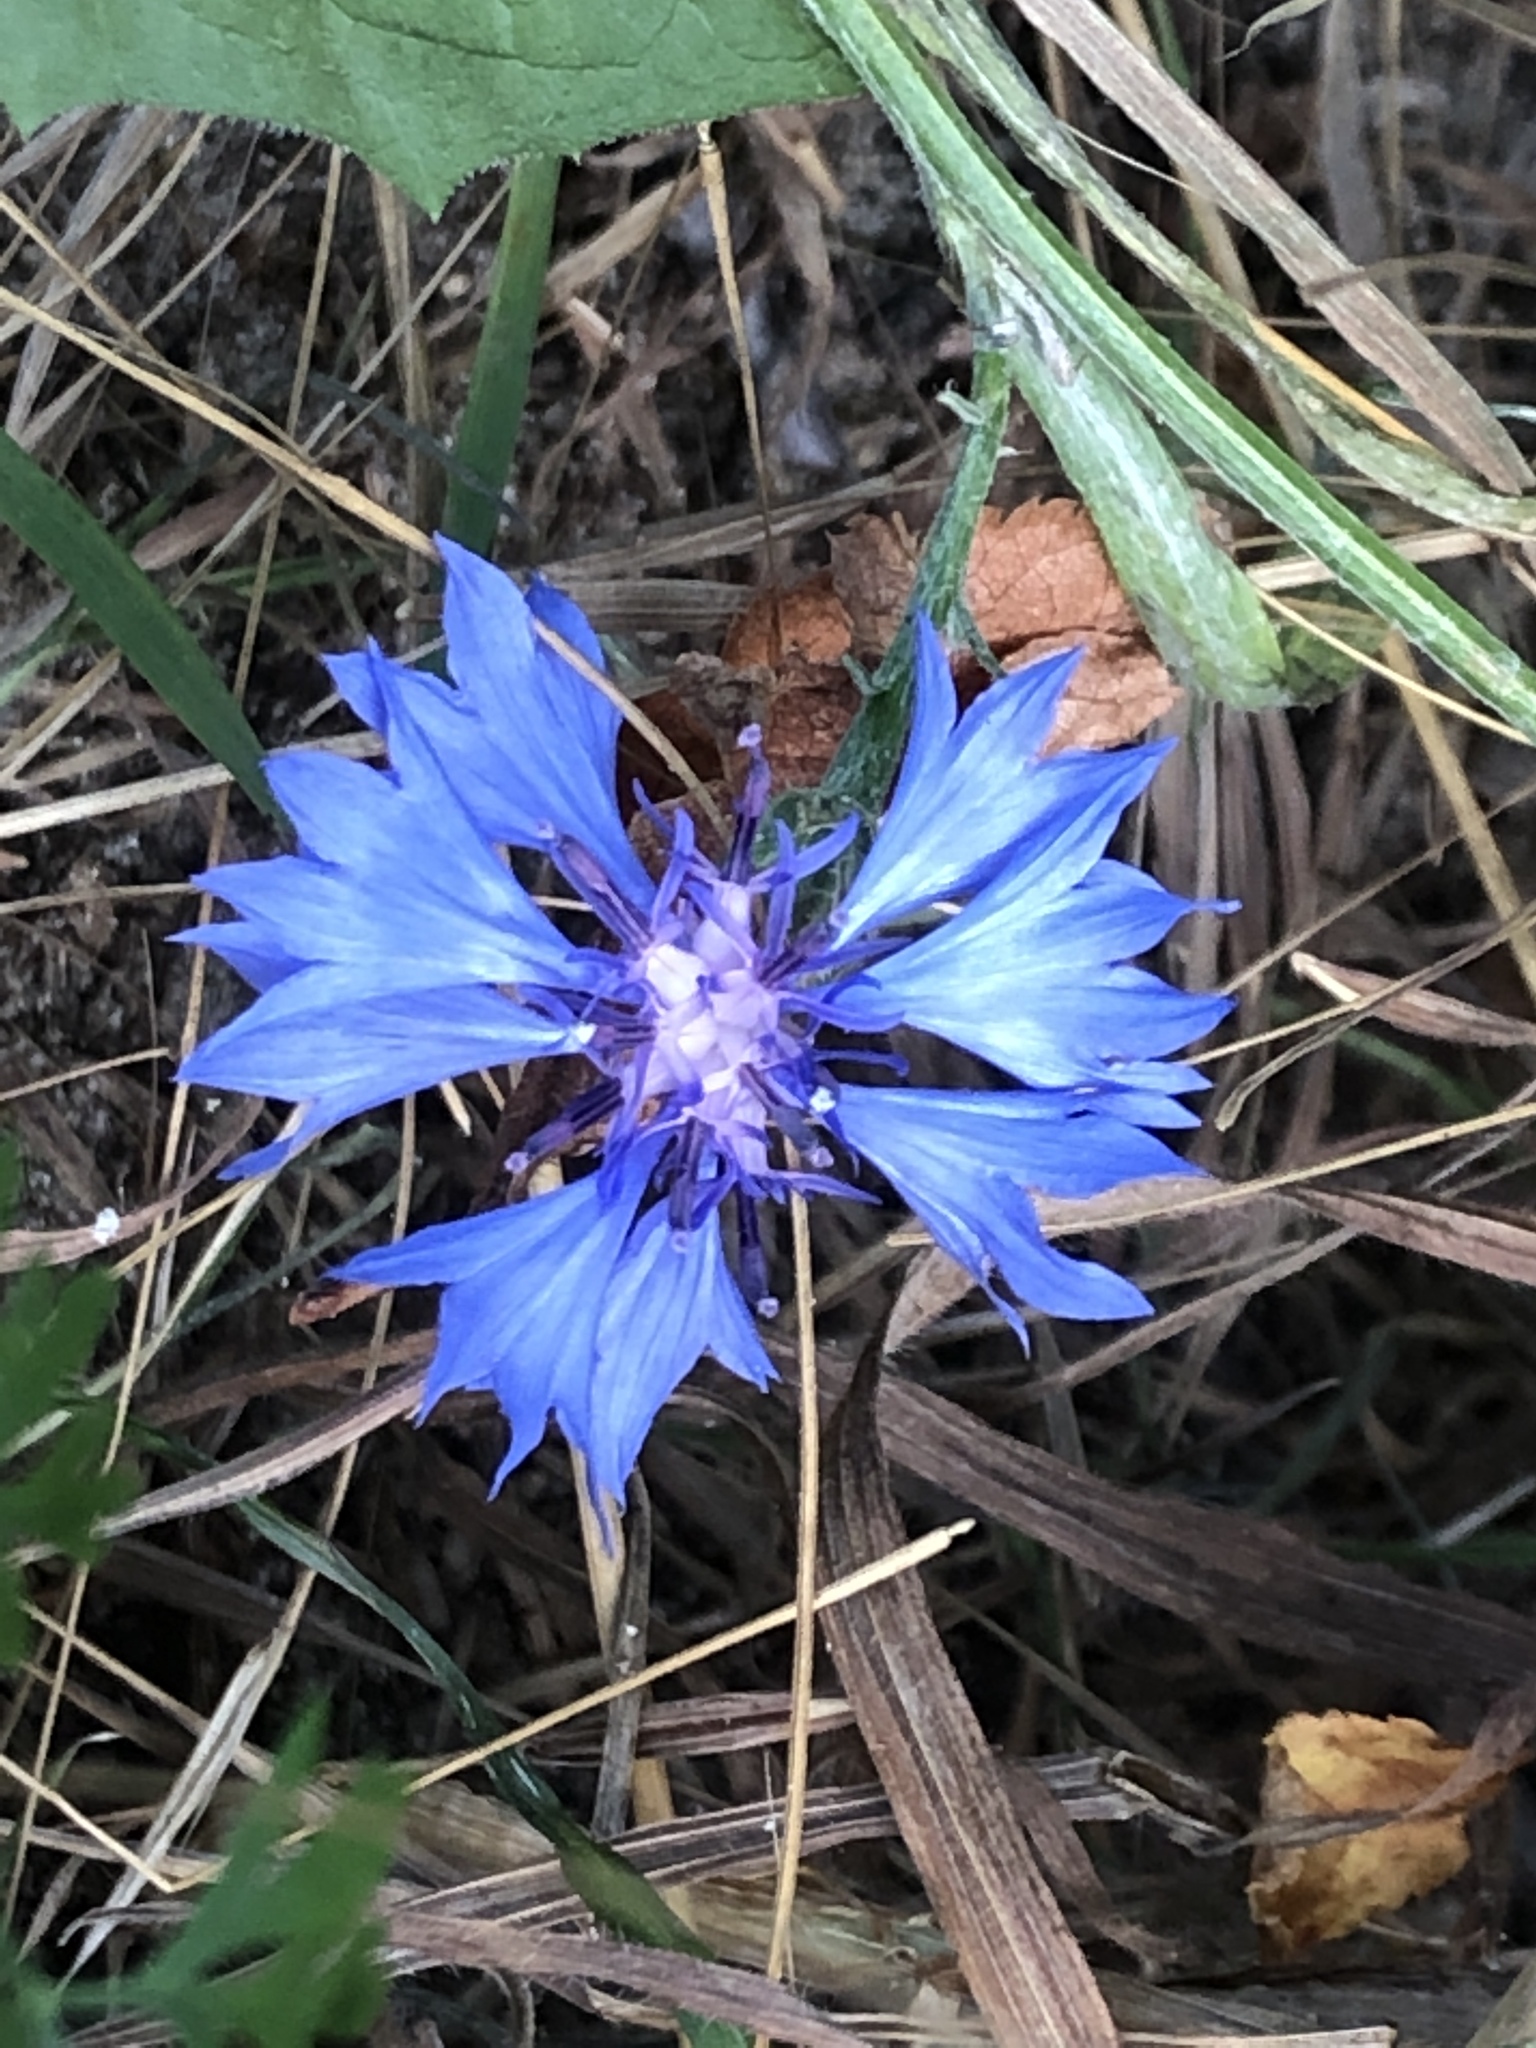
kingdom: Plantae
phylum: Tracheophyta
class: Magnoliopsida
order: Asterales
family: Asteraceae
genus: Centaurea
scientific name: Centaurea cyanus
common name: Cornflower
